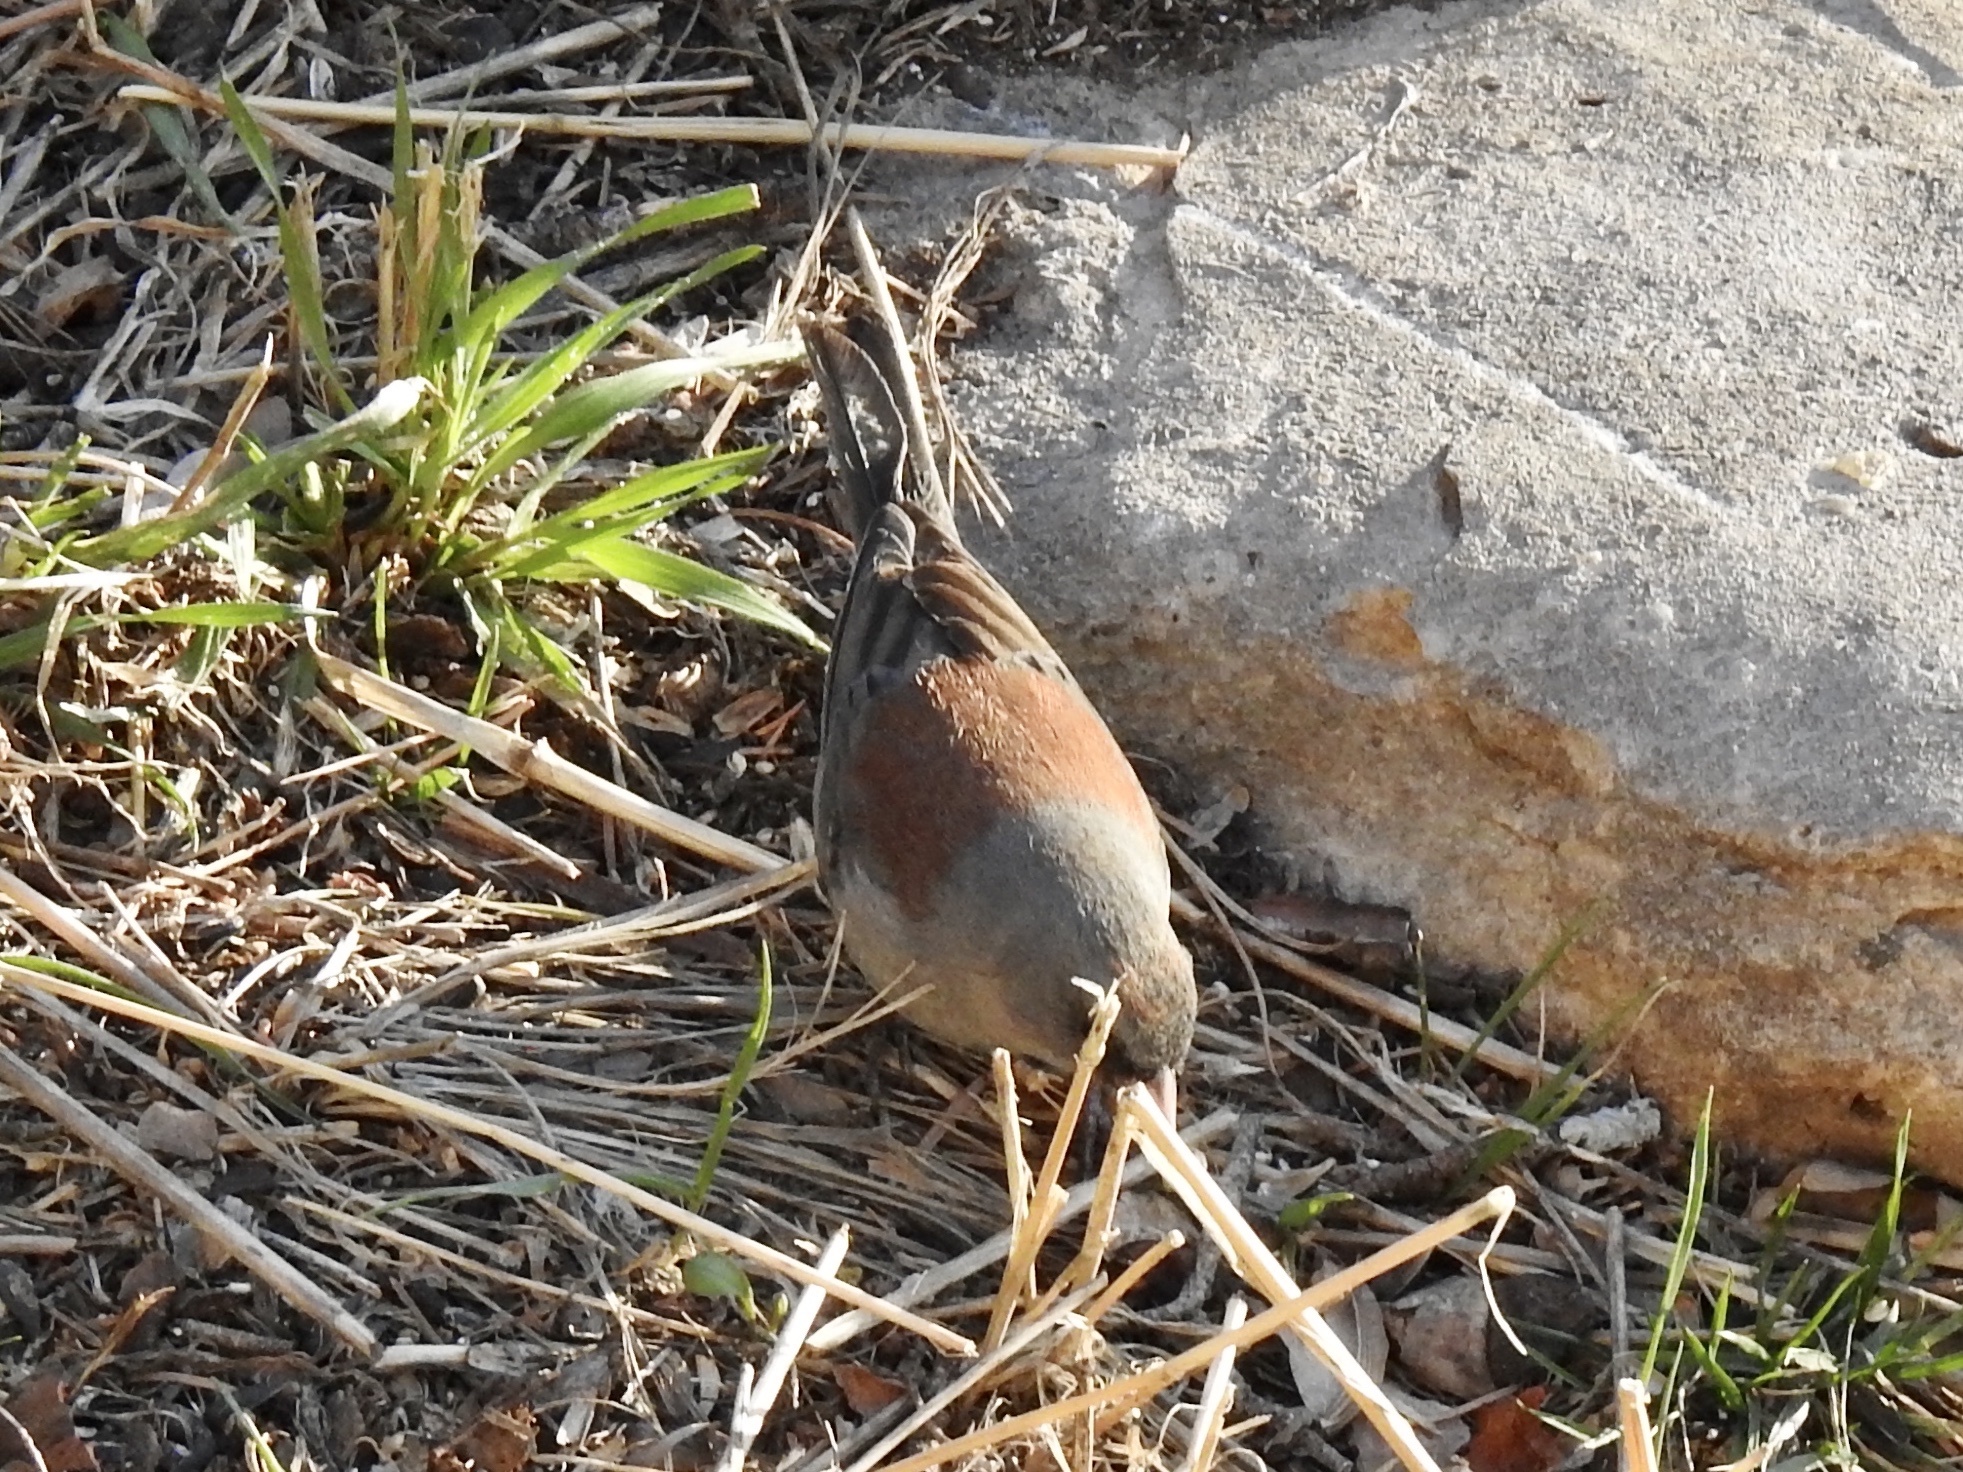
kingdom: Animalia
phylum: Chordata
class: Aves
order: Passeriformes
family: Passerellidae
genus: Junco
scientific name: Junco hyemalis
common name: Dark-eyed junco
